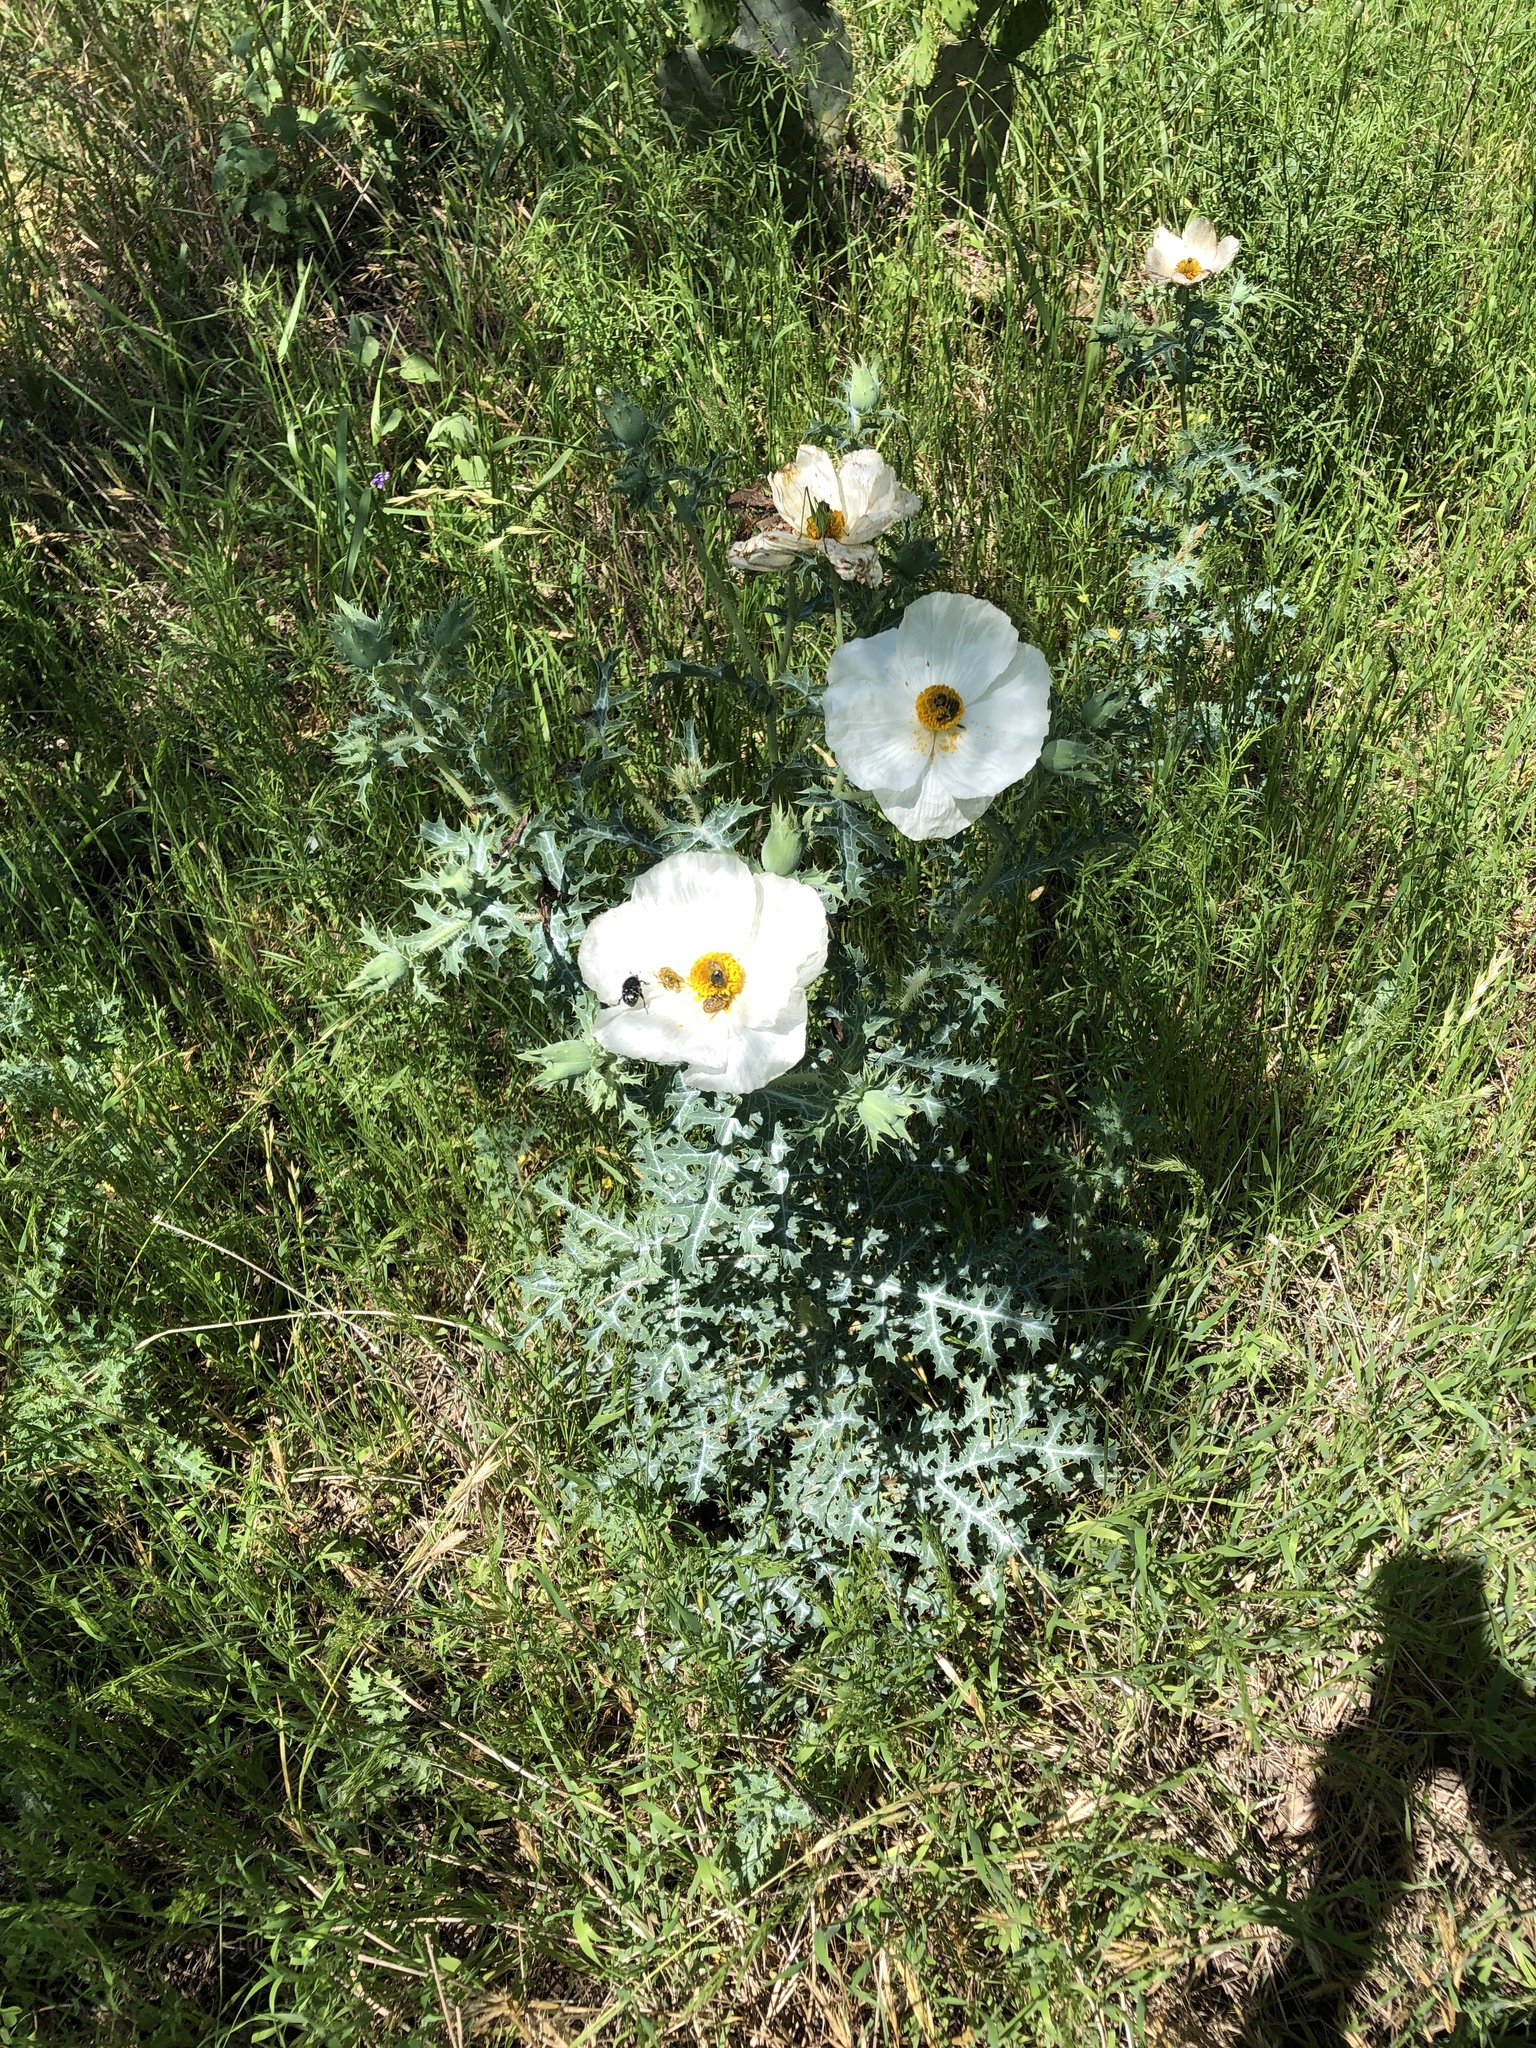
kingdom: Plantae
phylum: Tracheophyta
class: Magnoliopsida
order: Ranunculales
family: Papaveraceae
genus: Argemone
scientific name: Argemone albiflora
